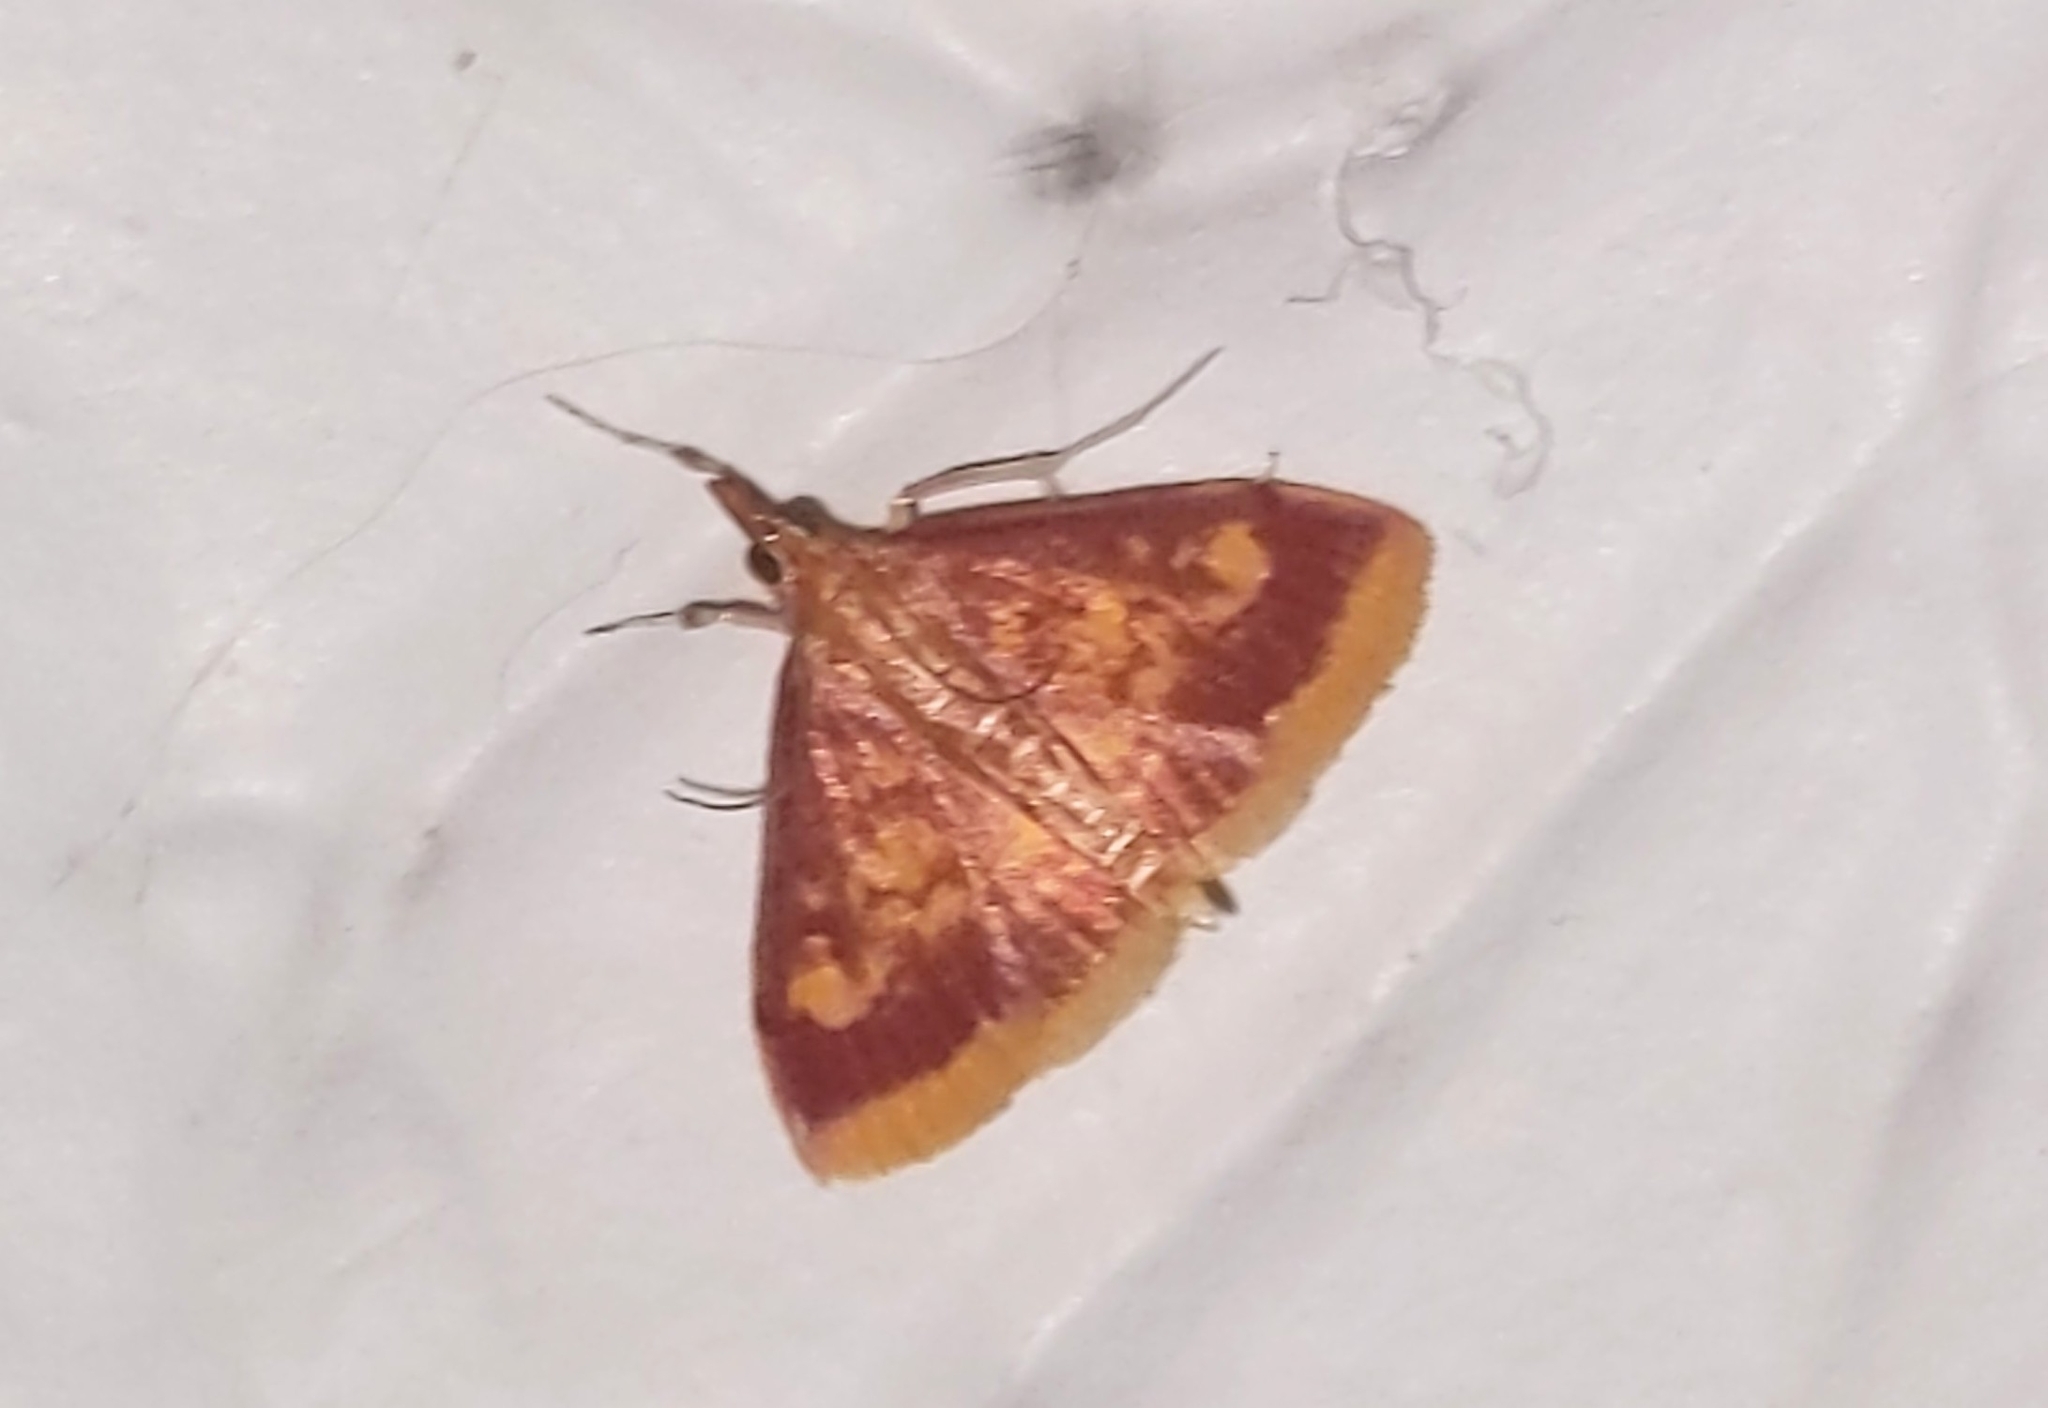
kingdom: Animalia
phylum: Arthropoda
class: Insecta
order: Lepidoptera
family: Crambidae
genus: Pyrausta
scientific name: Pyrausta acrionalis
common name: Mint-loving pyrausta moth
